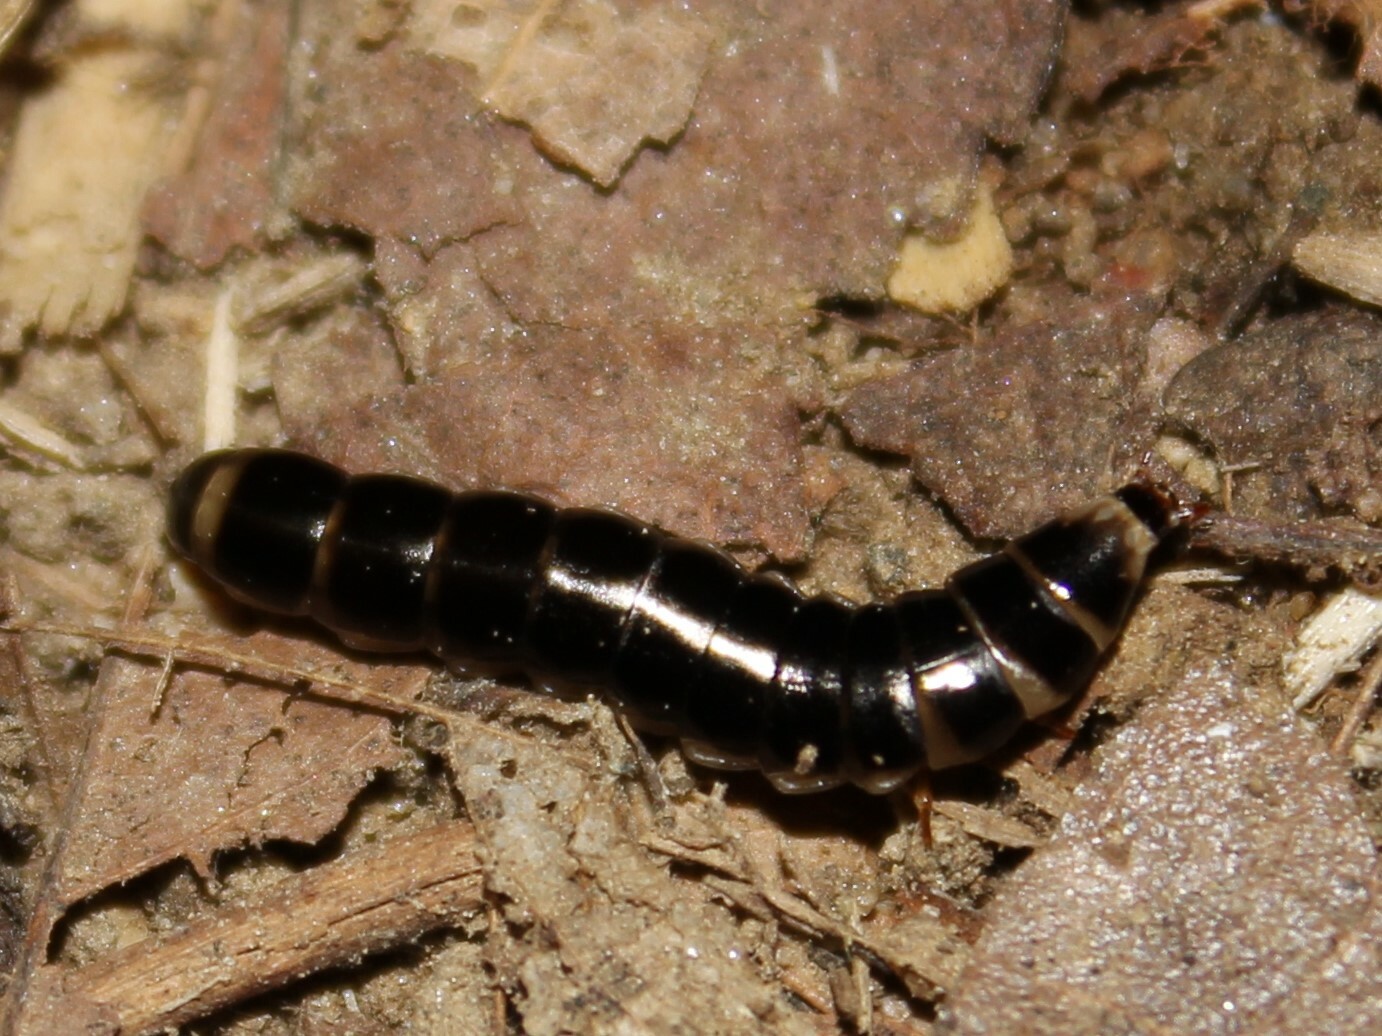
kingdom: Animalia
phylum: Arthropoda
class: Insecta
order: Coleoptera
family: Phengodidae
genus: Phengodes
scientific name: Phengodes
